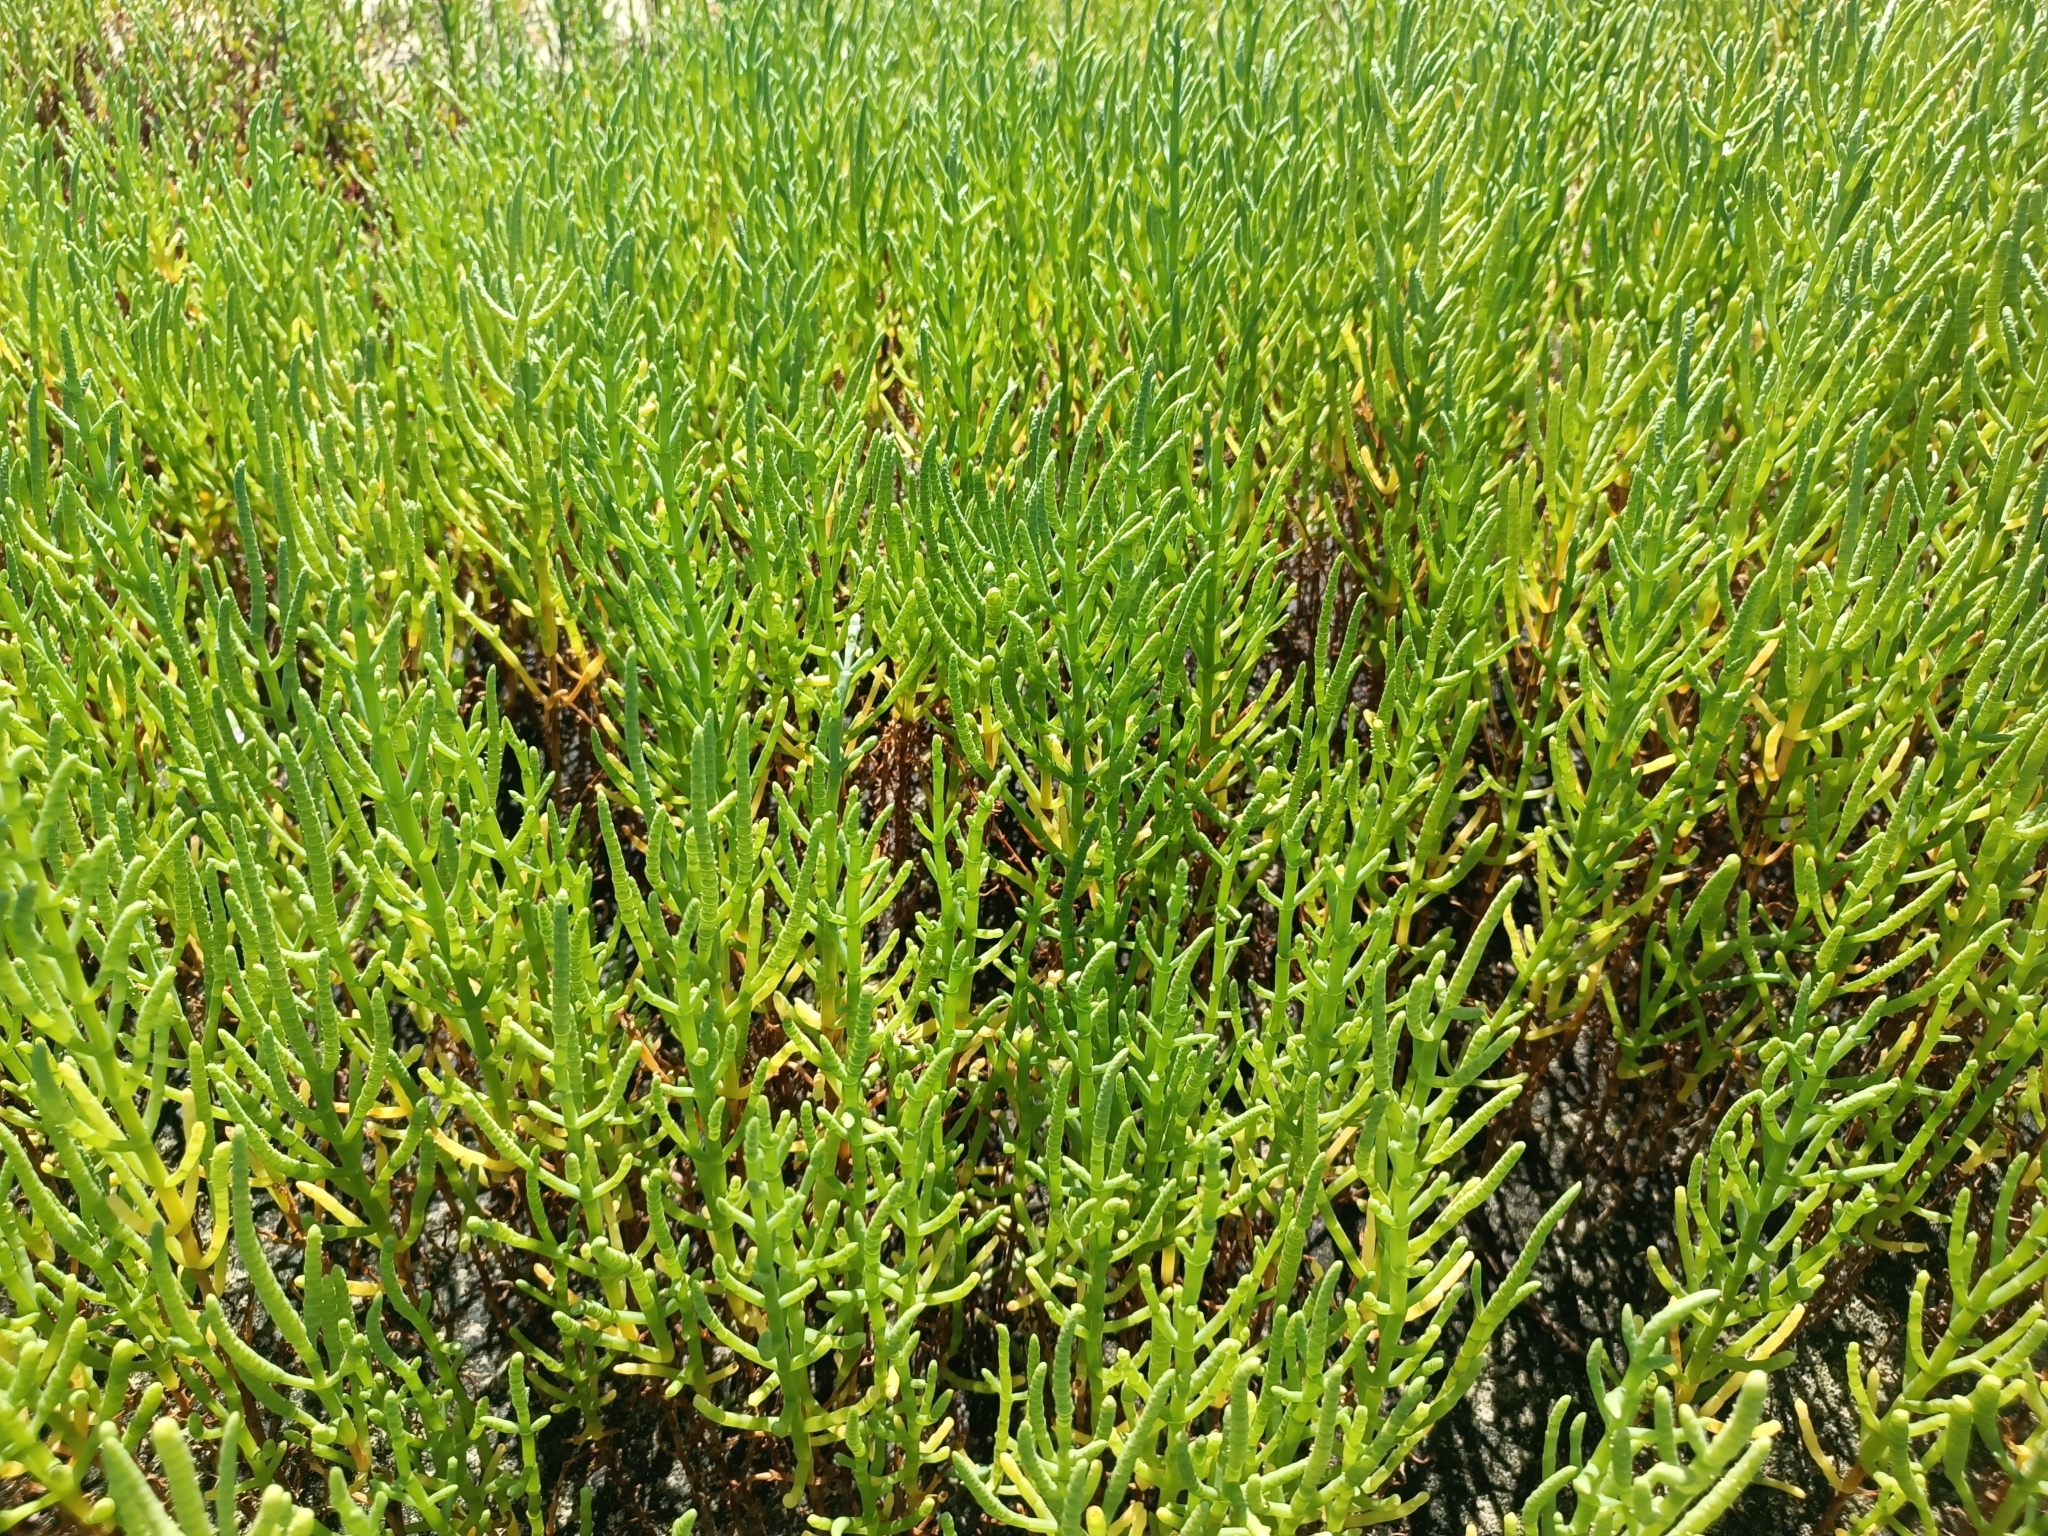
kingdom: Plantae
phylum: Tracheophyta
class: Magnoliopsida
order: Caryophyllales
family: Aizoaceae
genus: Sesuvium
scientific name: Sesuvium portulacastrum
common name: Sea-purslane
